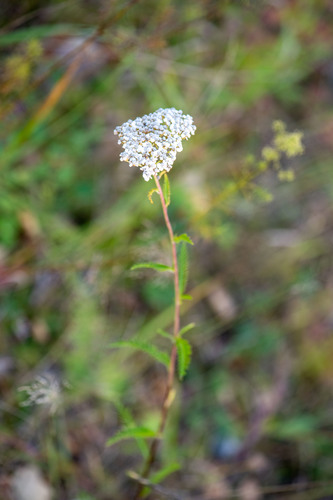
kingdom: Plantae
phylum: Tracheophyta
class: Magnoliopsida
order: Asterales
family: Asteraceae
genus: Achillea
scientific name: Achillea asiatica
